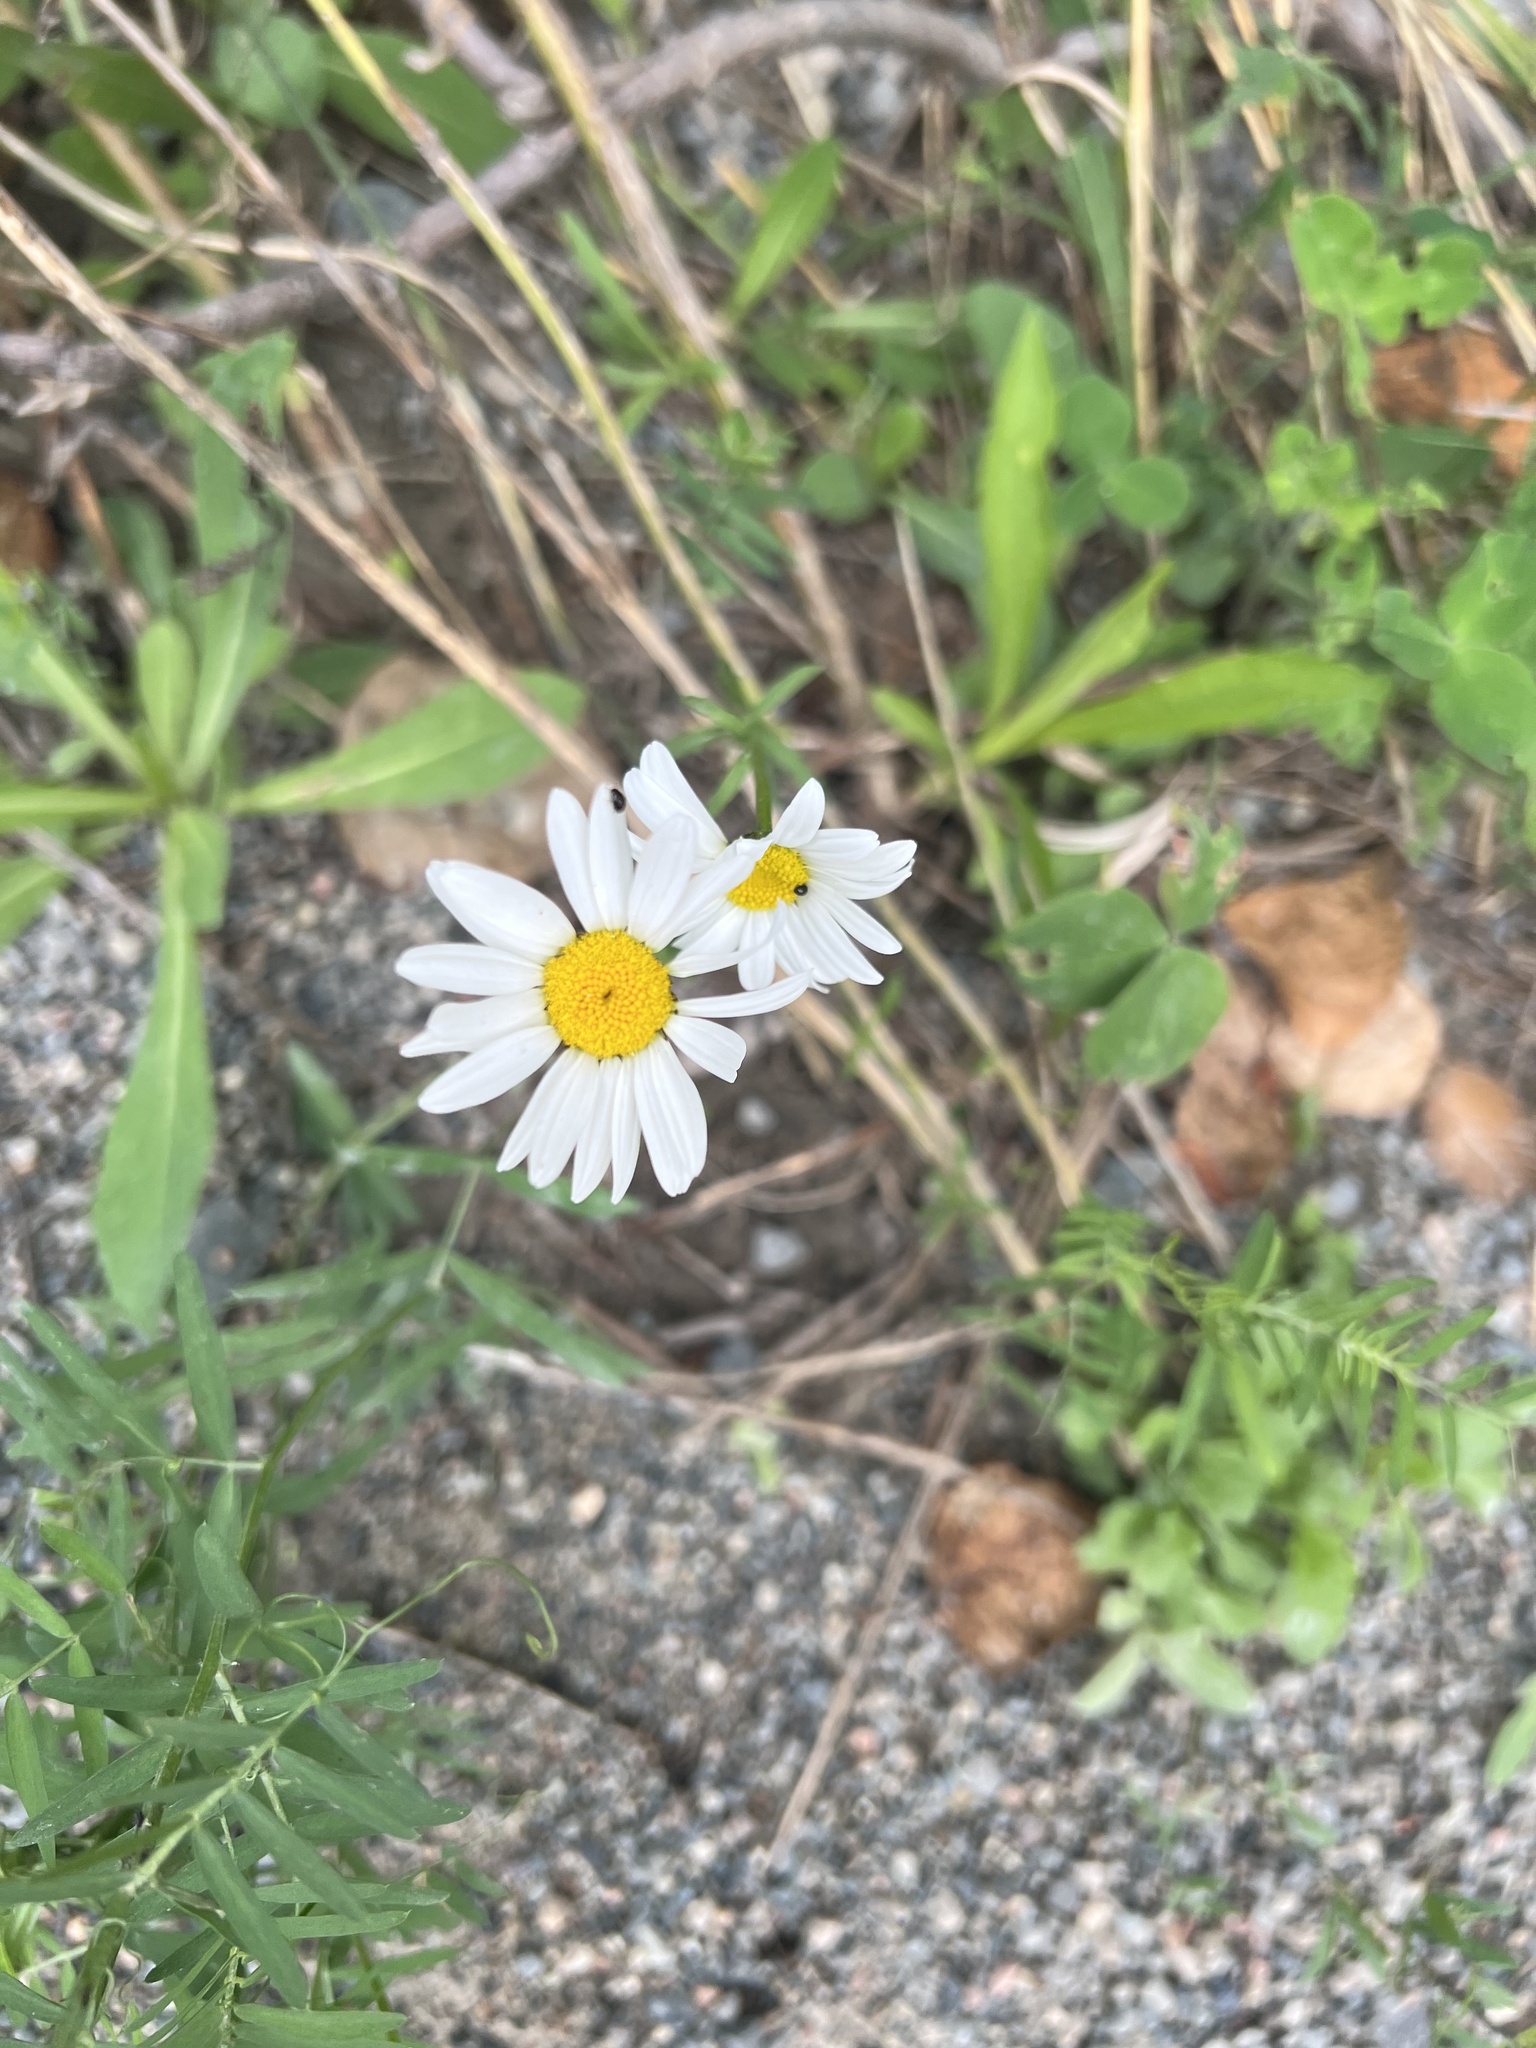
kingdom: Plantae
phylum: Tracheophyta
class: Magnoliopsida
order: Asterales
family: Asteraceae
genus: Leucanthemum
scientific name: Leucanthemum vulgare
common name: Oxeye daisy
